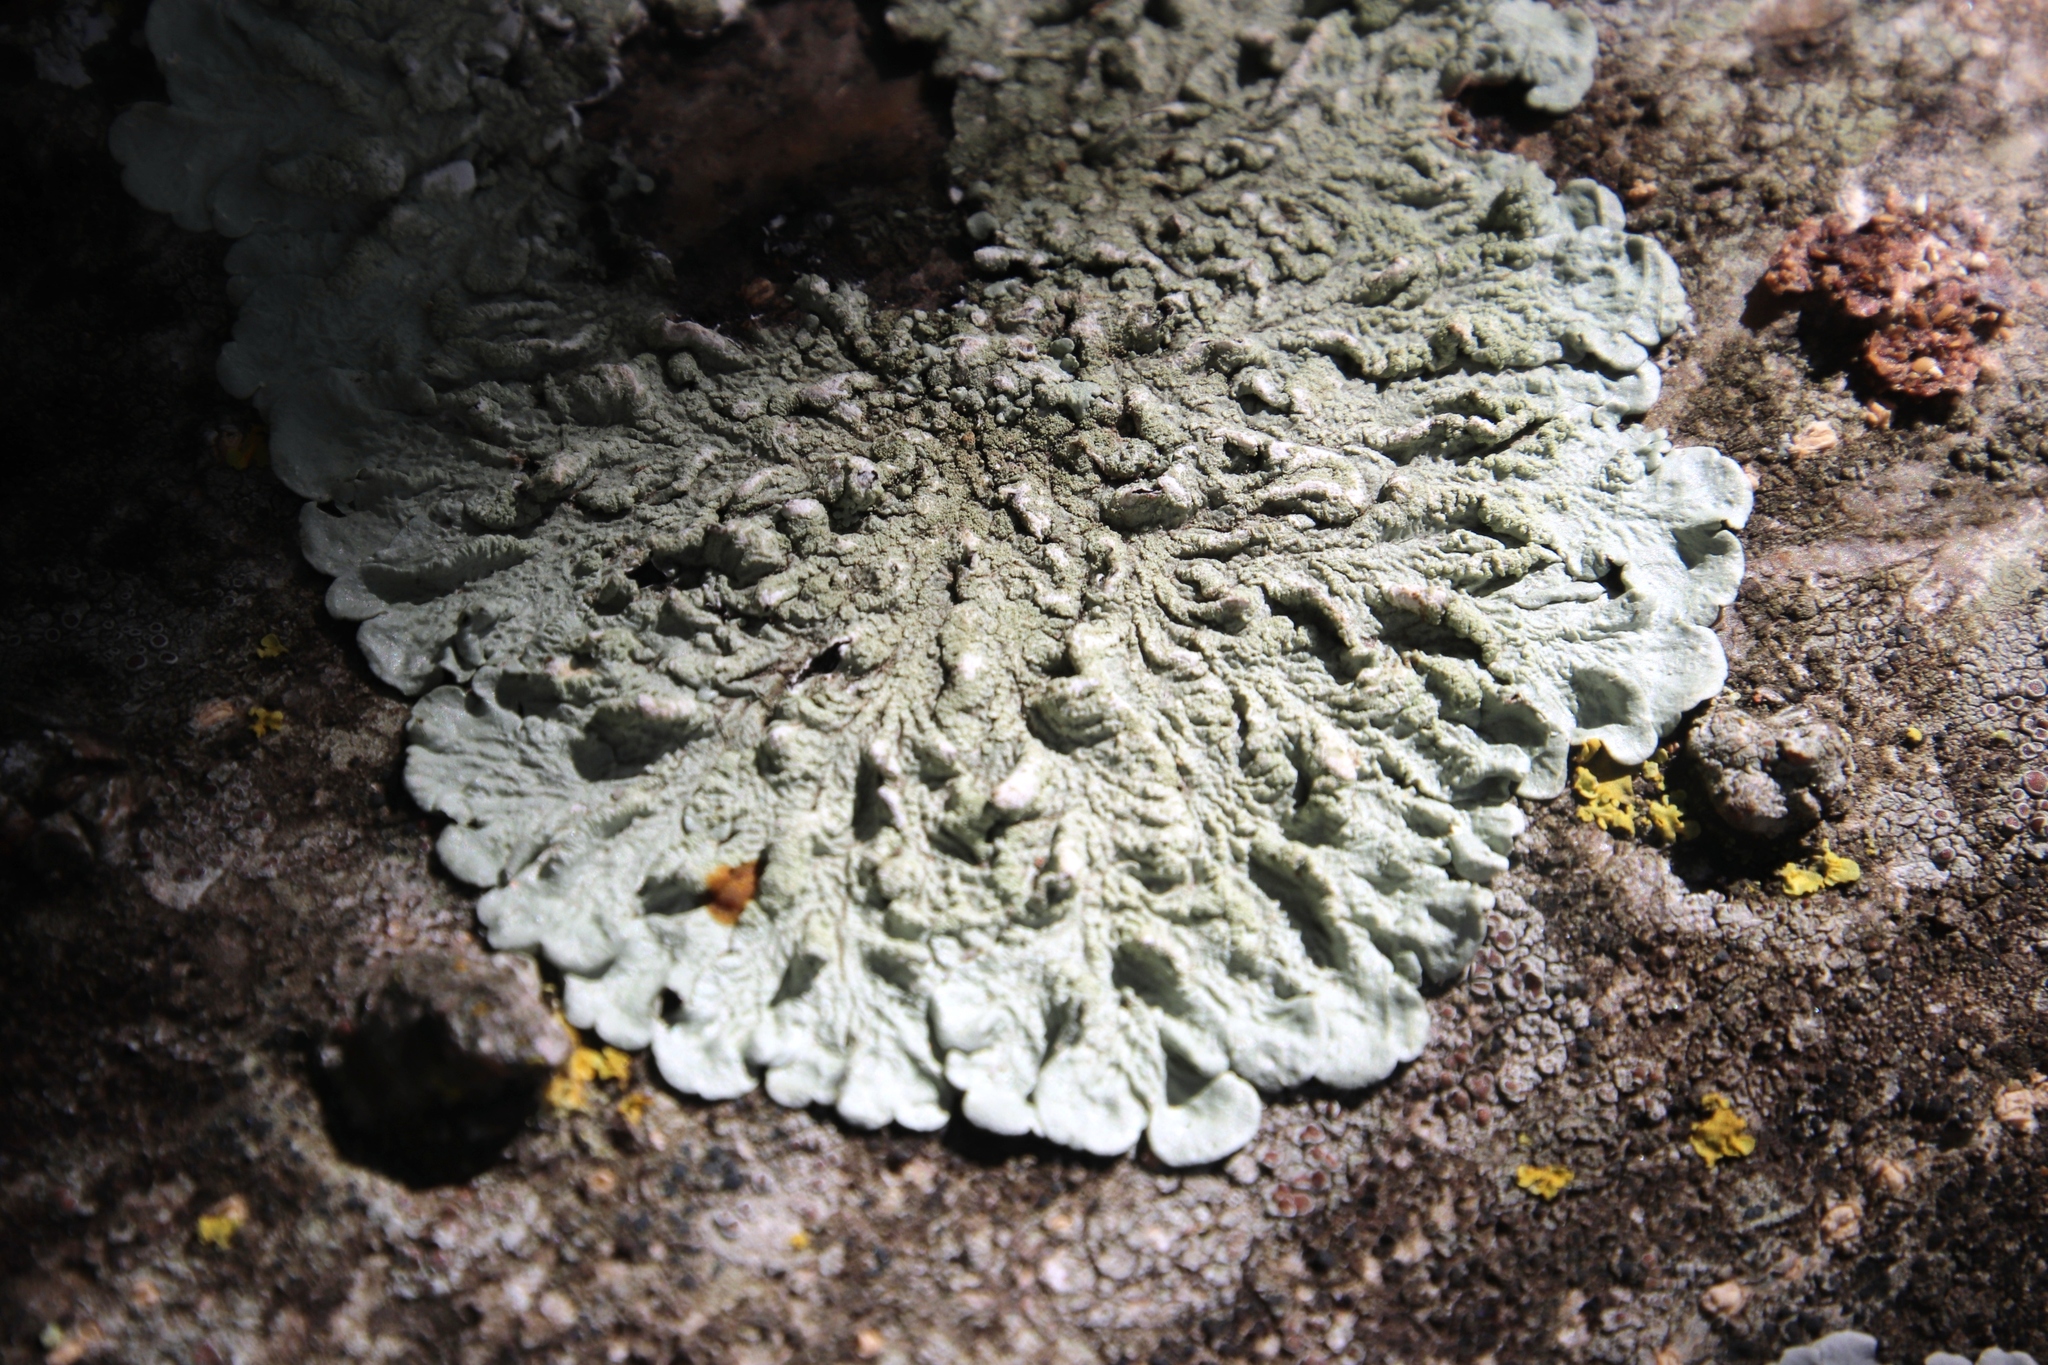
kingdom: Fungi
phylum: Ascomycota
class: Lecanoromycetes
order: Lecanorales
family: Parmeliaceae
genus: Flavoparmelia
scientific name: Flavoparmelia soredians
